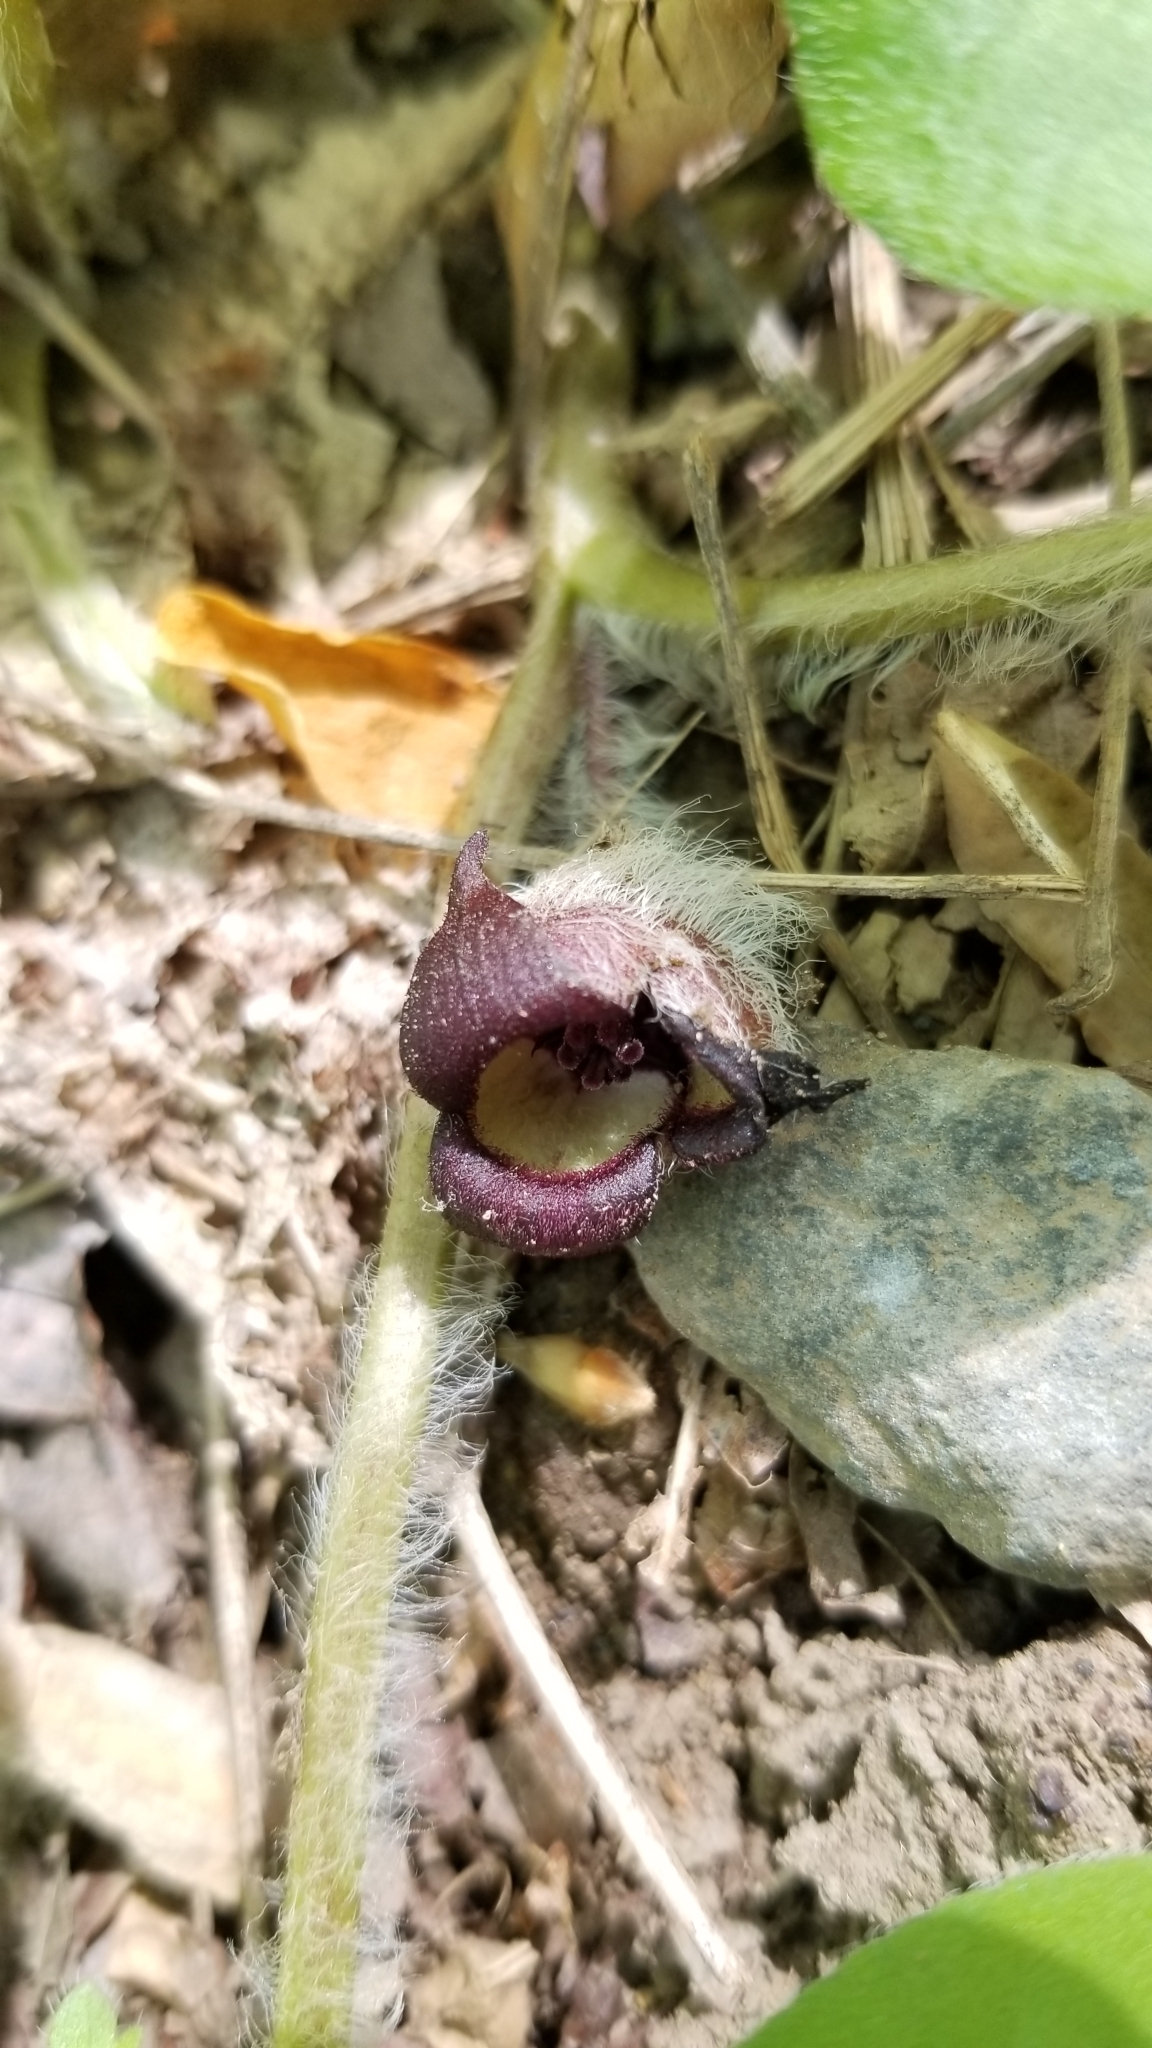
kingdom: Plantae
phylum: Tracheophyta
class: Magnoliopsida
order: Piperales
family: Aristolochiaceae
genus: Asarum
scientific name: Asarum canadense
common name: Wild ginger
